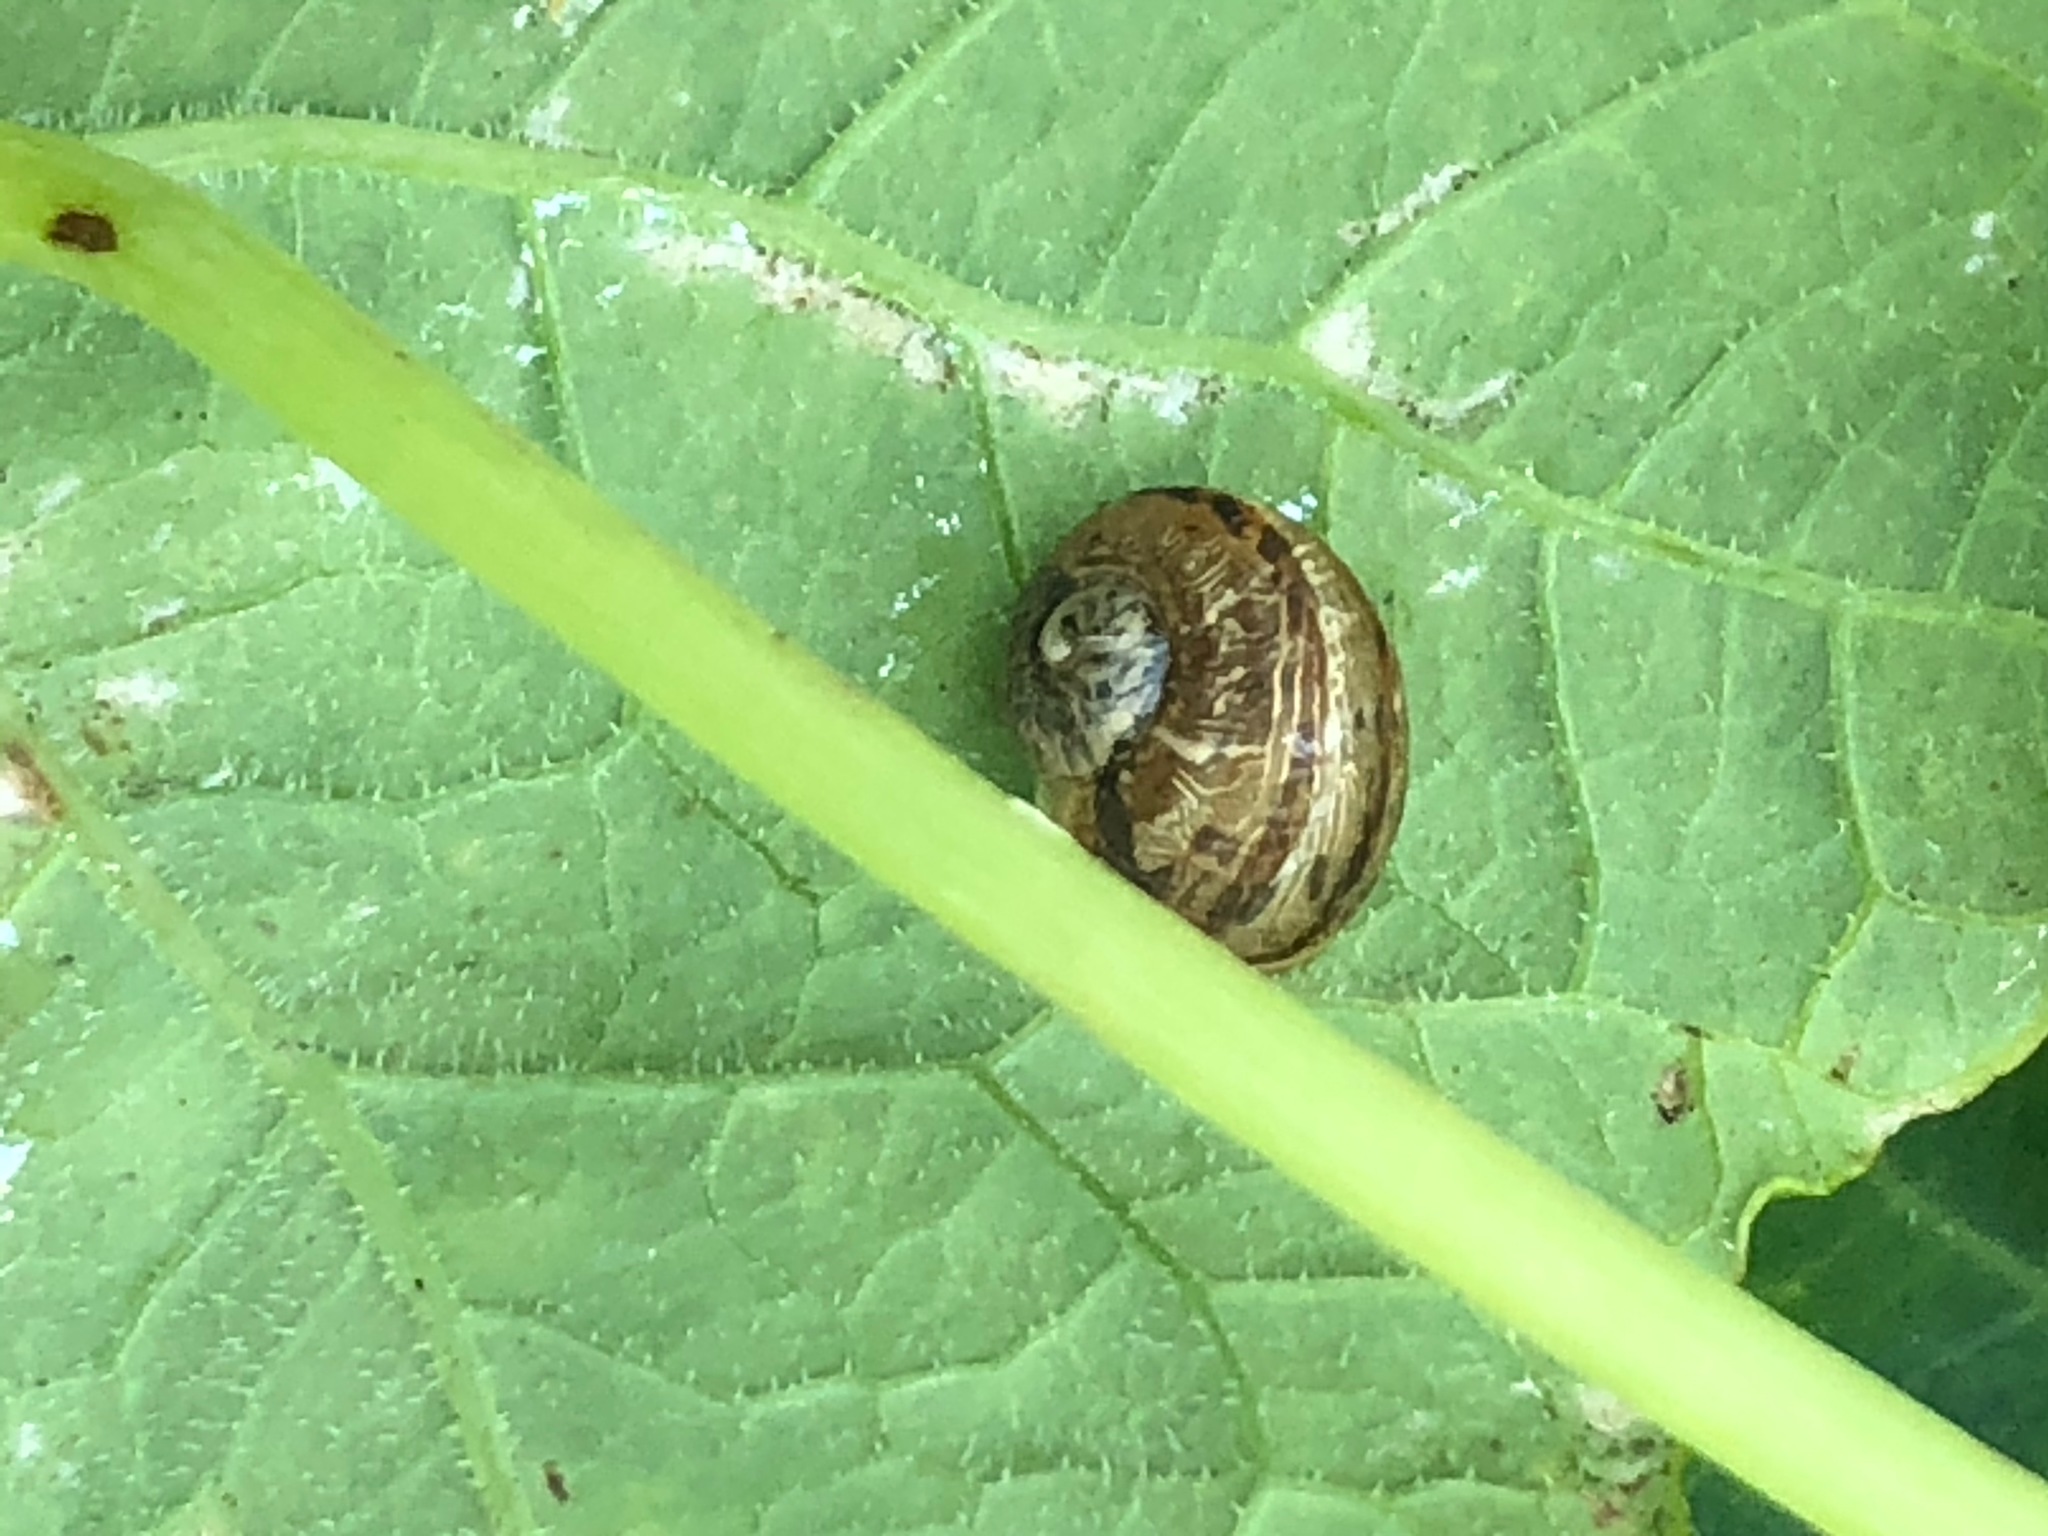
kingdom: Animalia
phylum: Mollusca
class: Gastropoda
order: Stylommatophora
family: Helicidae
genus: Cornu
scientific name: Cornu aspersum
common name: Brown garden snail
